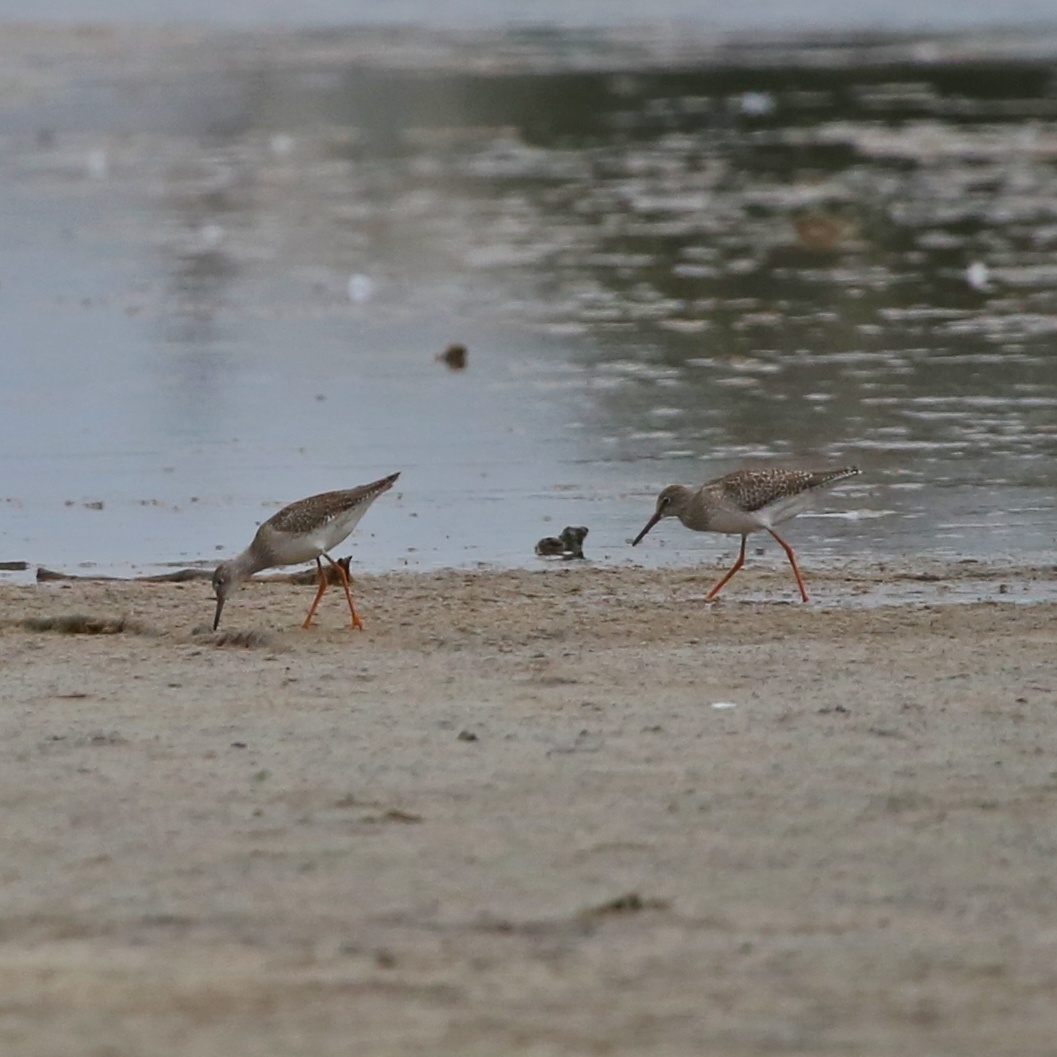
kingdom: Animalia
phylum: Chordata
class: Aves
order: Charadriiformes
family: Scolopacidae
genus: Tringa
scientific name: Tringa totanus
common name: Common redshank
